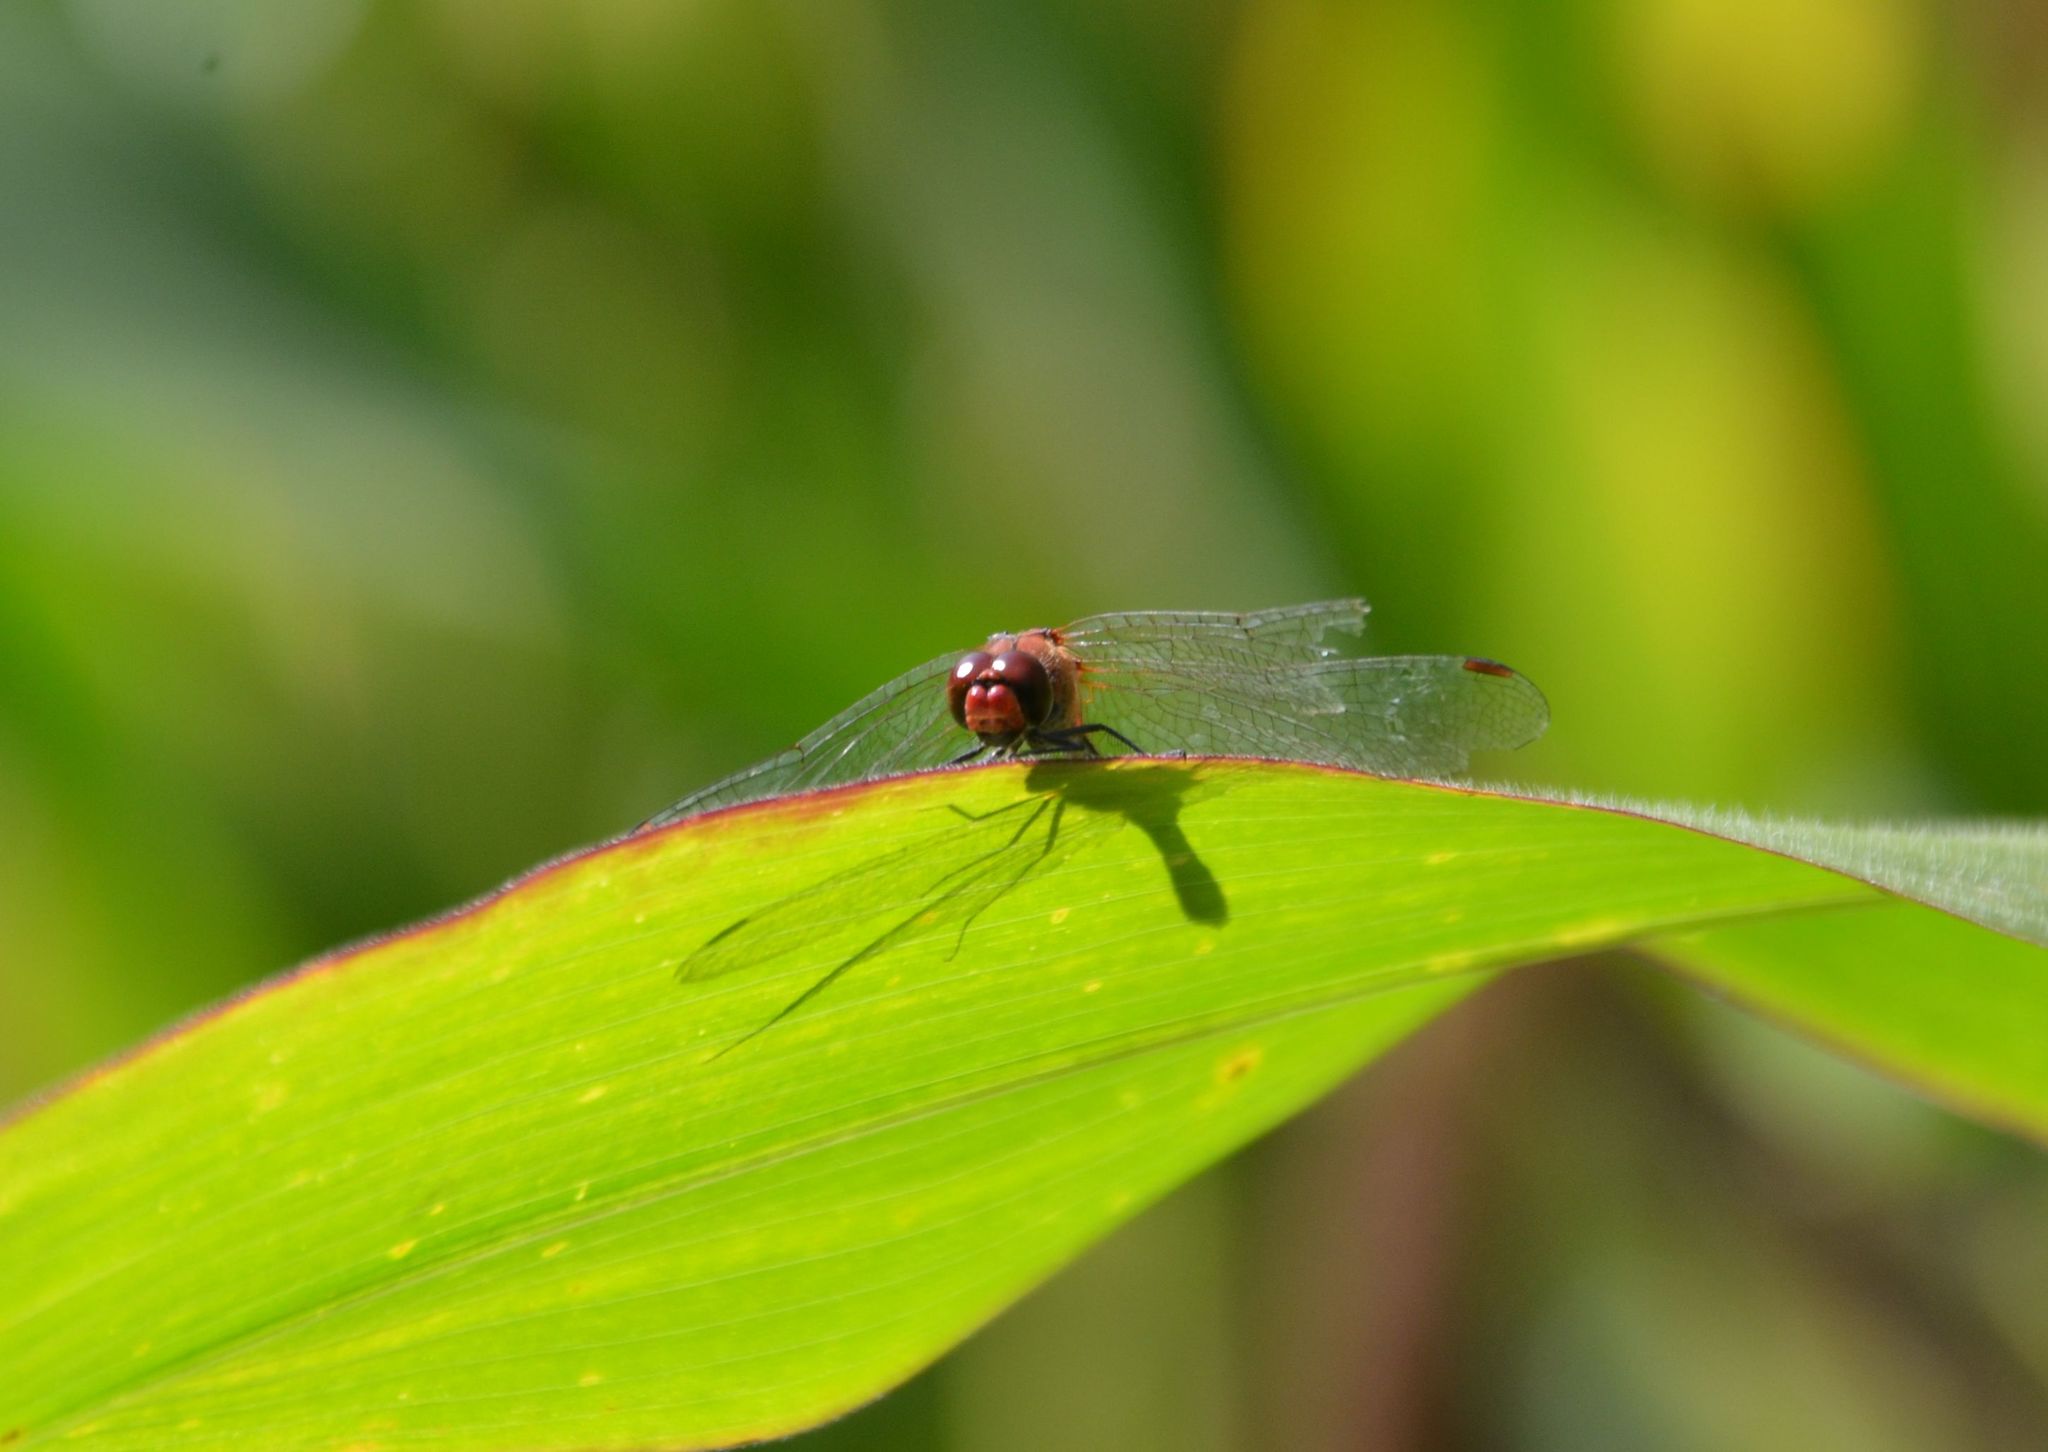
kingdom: Animalia
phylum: Arthropoda
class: Insecta
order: Odonata
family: Libellulidae
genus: Sympetrum
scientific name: Sympetrum sanguineum
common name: Ruddy darter
